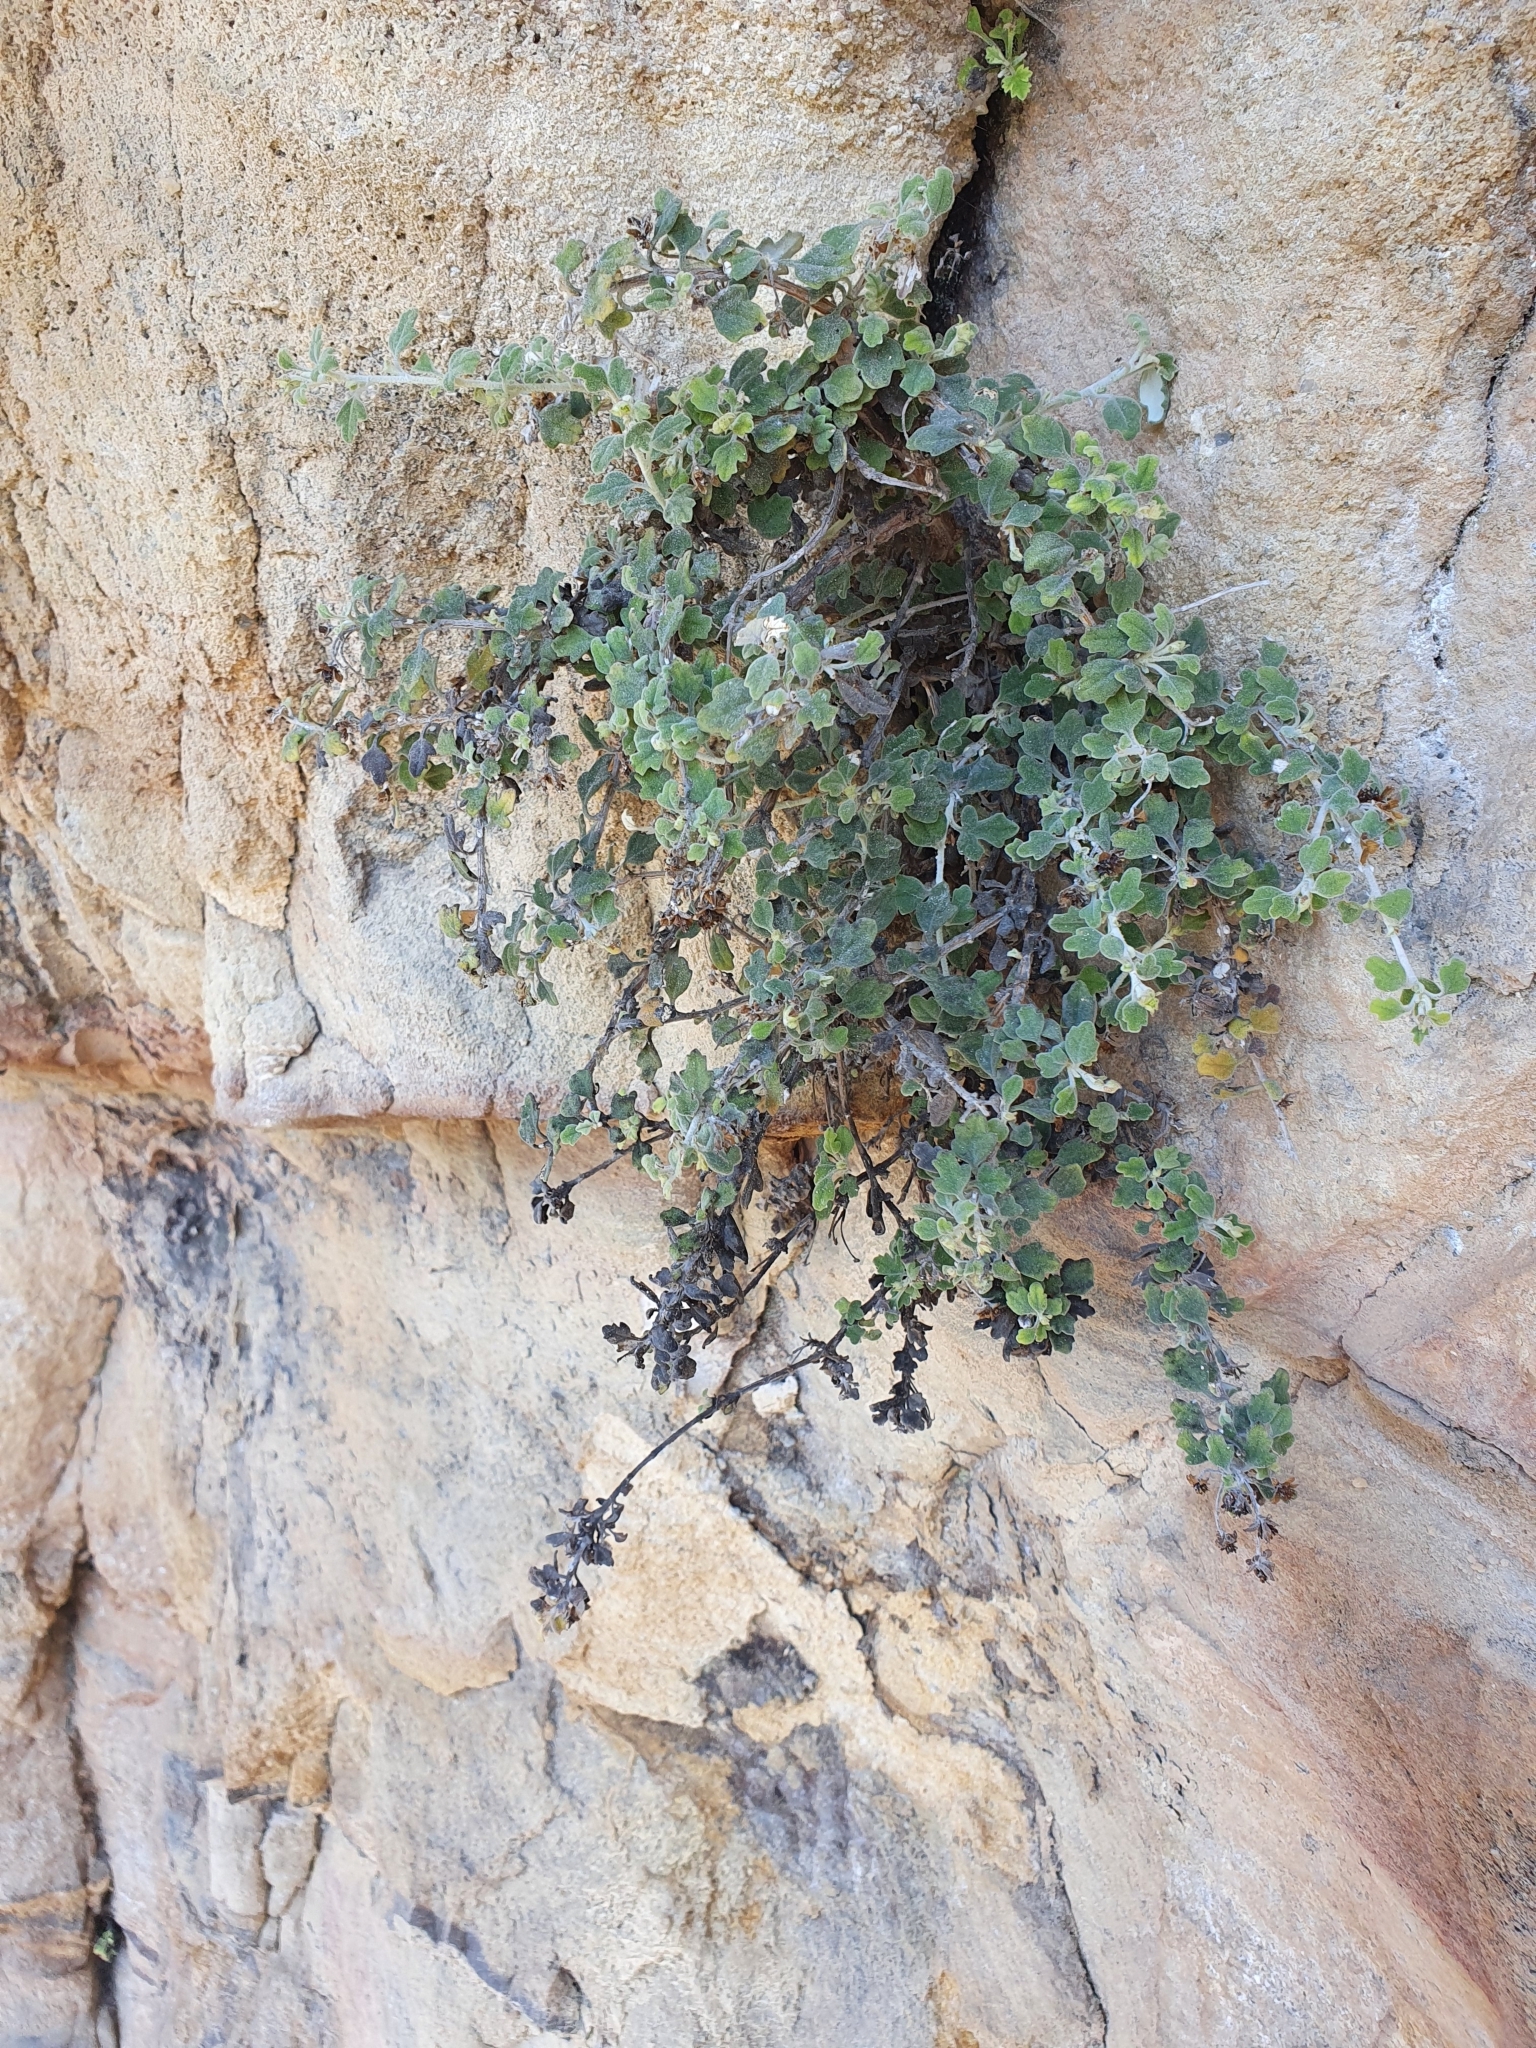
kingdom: Plantae
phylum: Tracheophyta
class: Magnoliopsida
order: Proteales
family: Proteaceae
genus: Persoonia
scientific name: Persoonia linearis
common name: Narrow-leaf geebung
